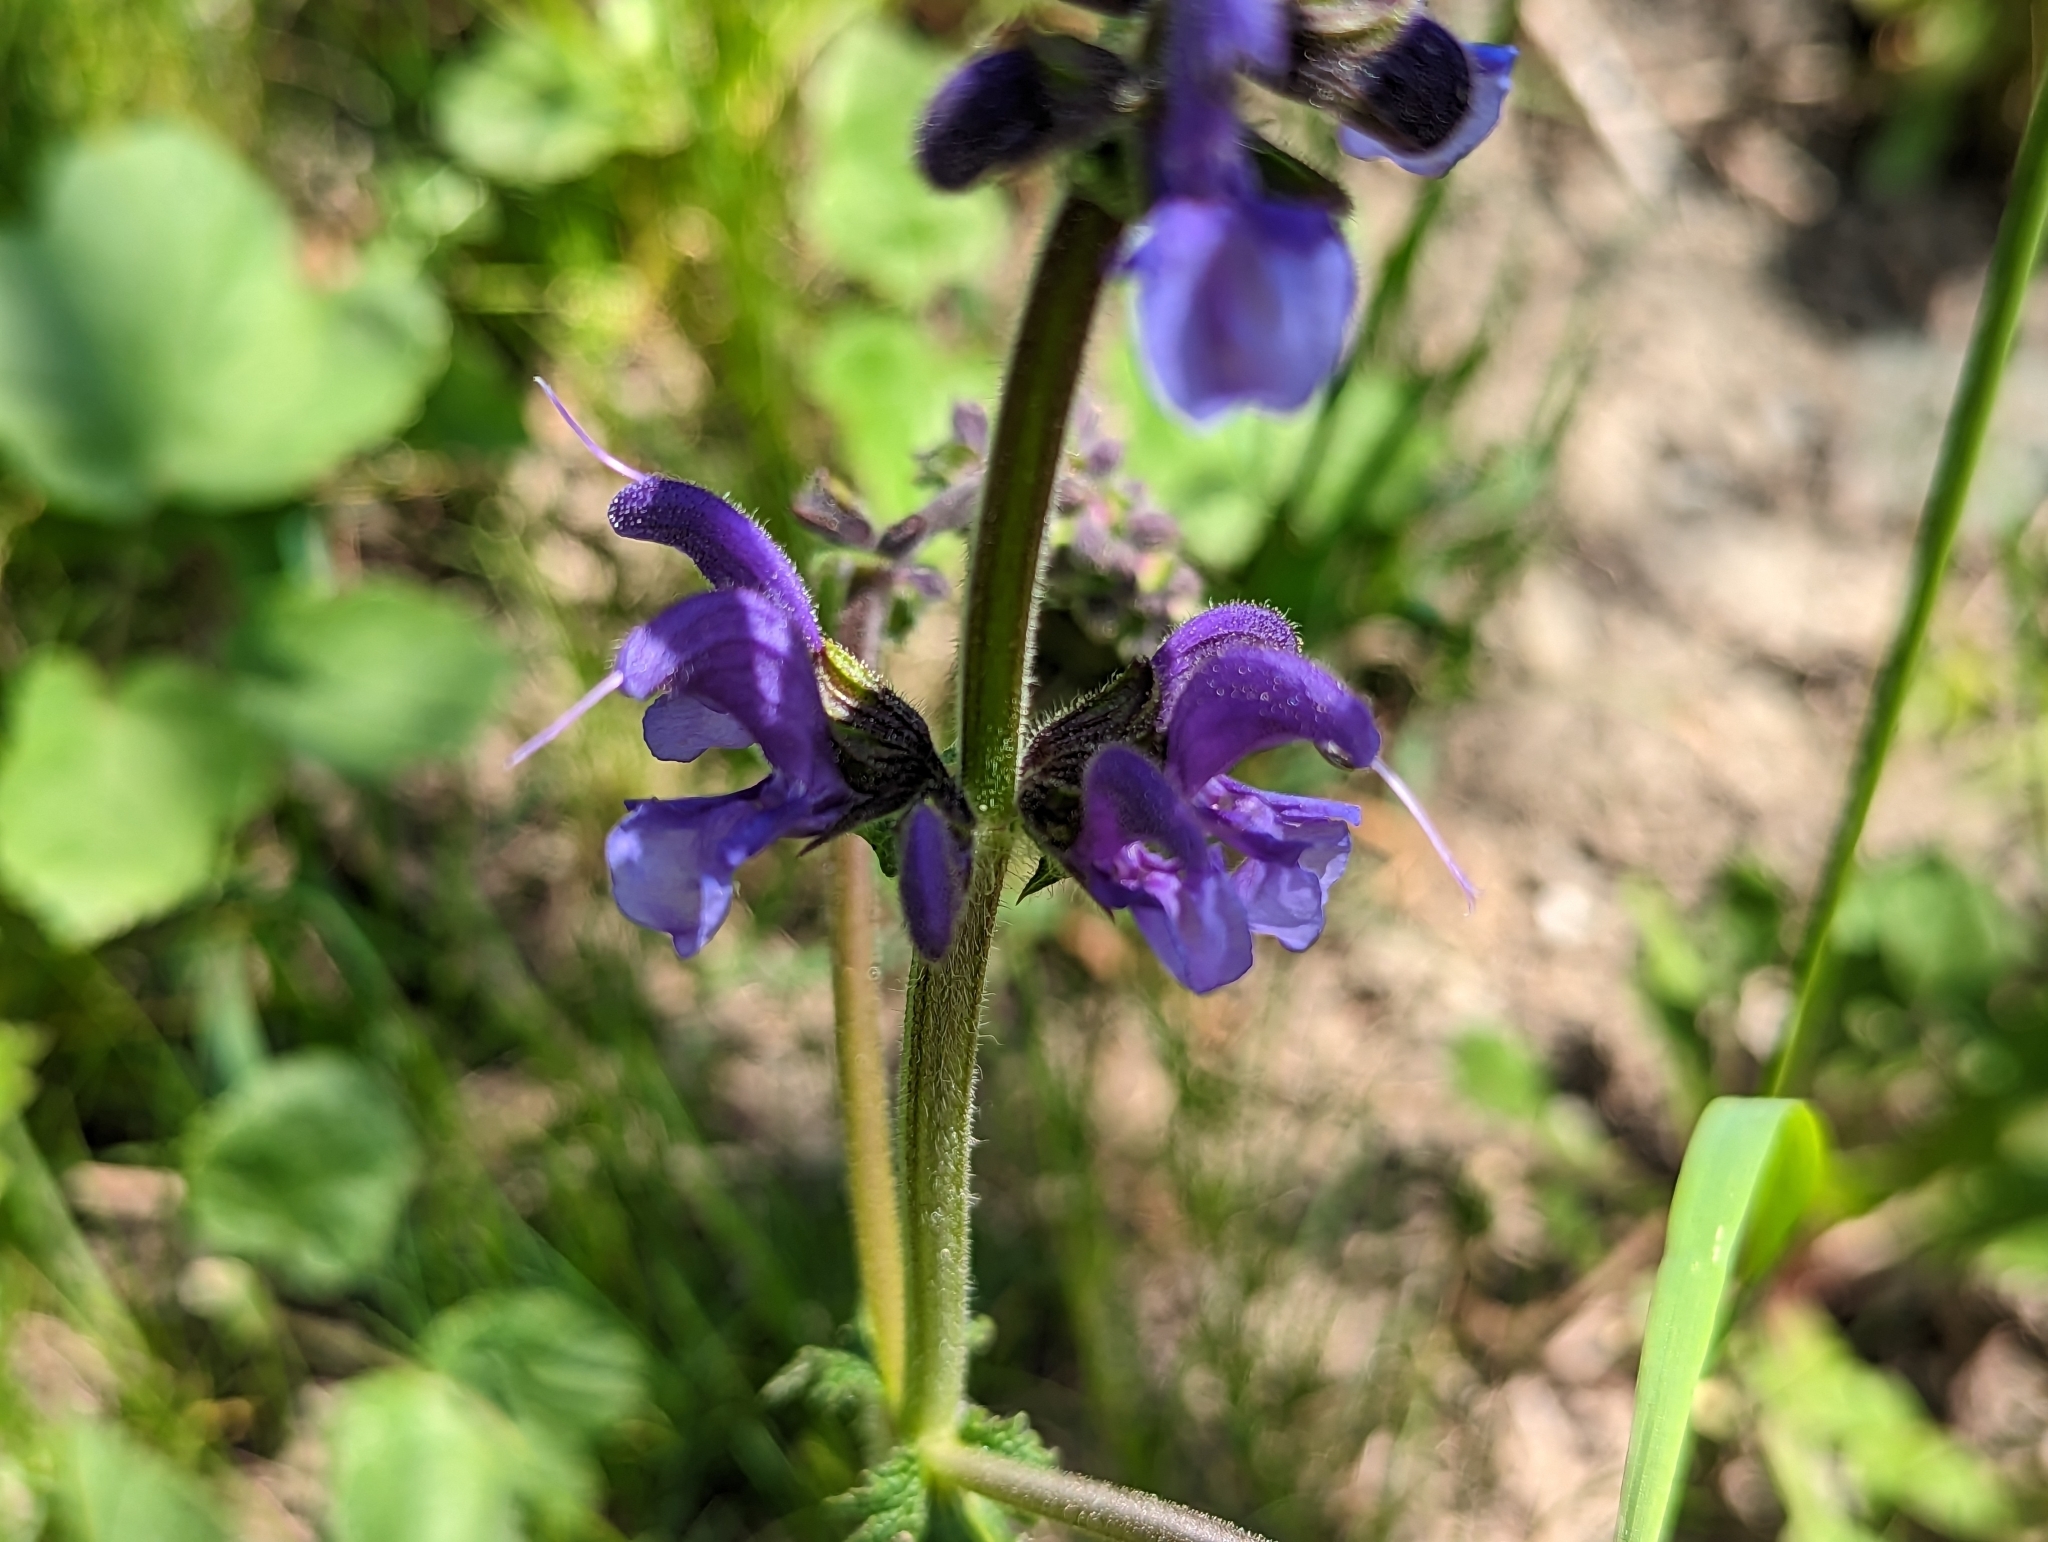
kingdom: Plantae
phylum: Tracheophyta
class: Magnoliopsida
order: Lamiales
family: Lamiaceae
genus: Salvia
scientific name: Salvia pratensis
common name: Meadow sage
